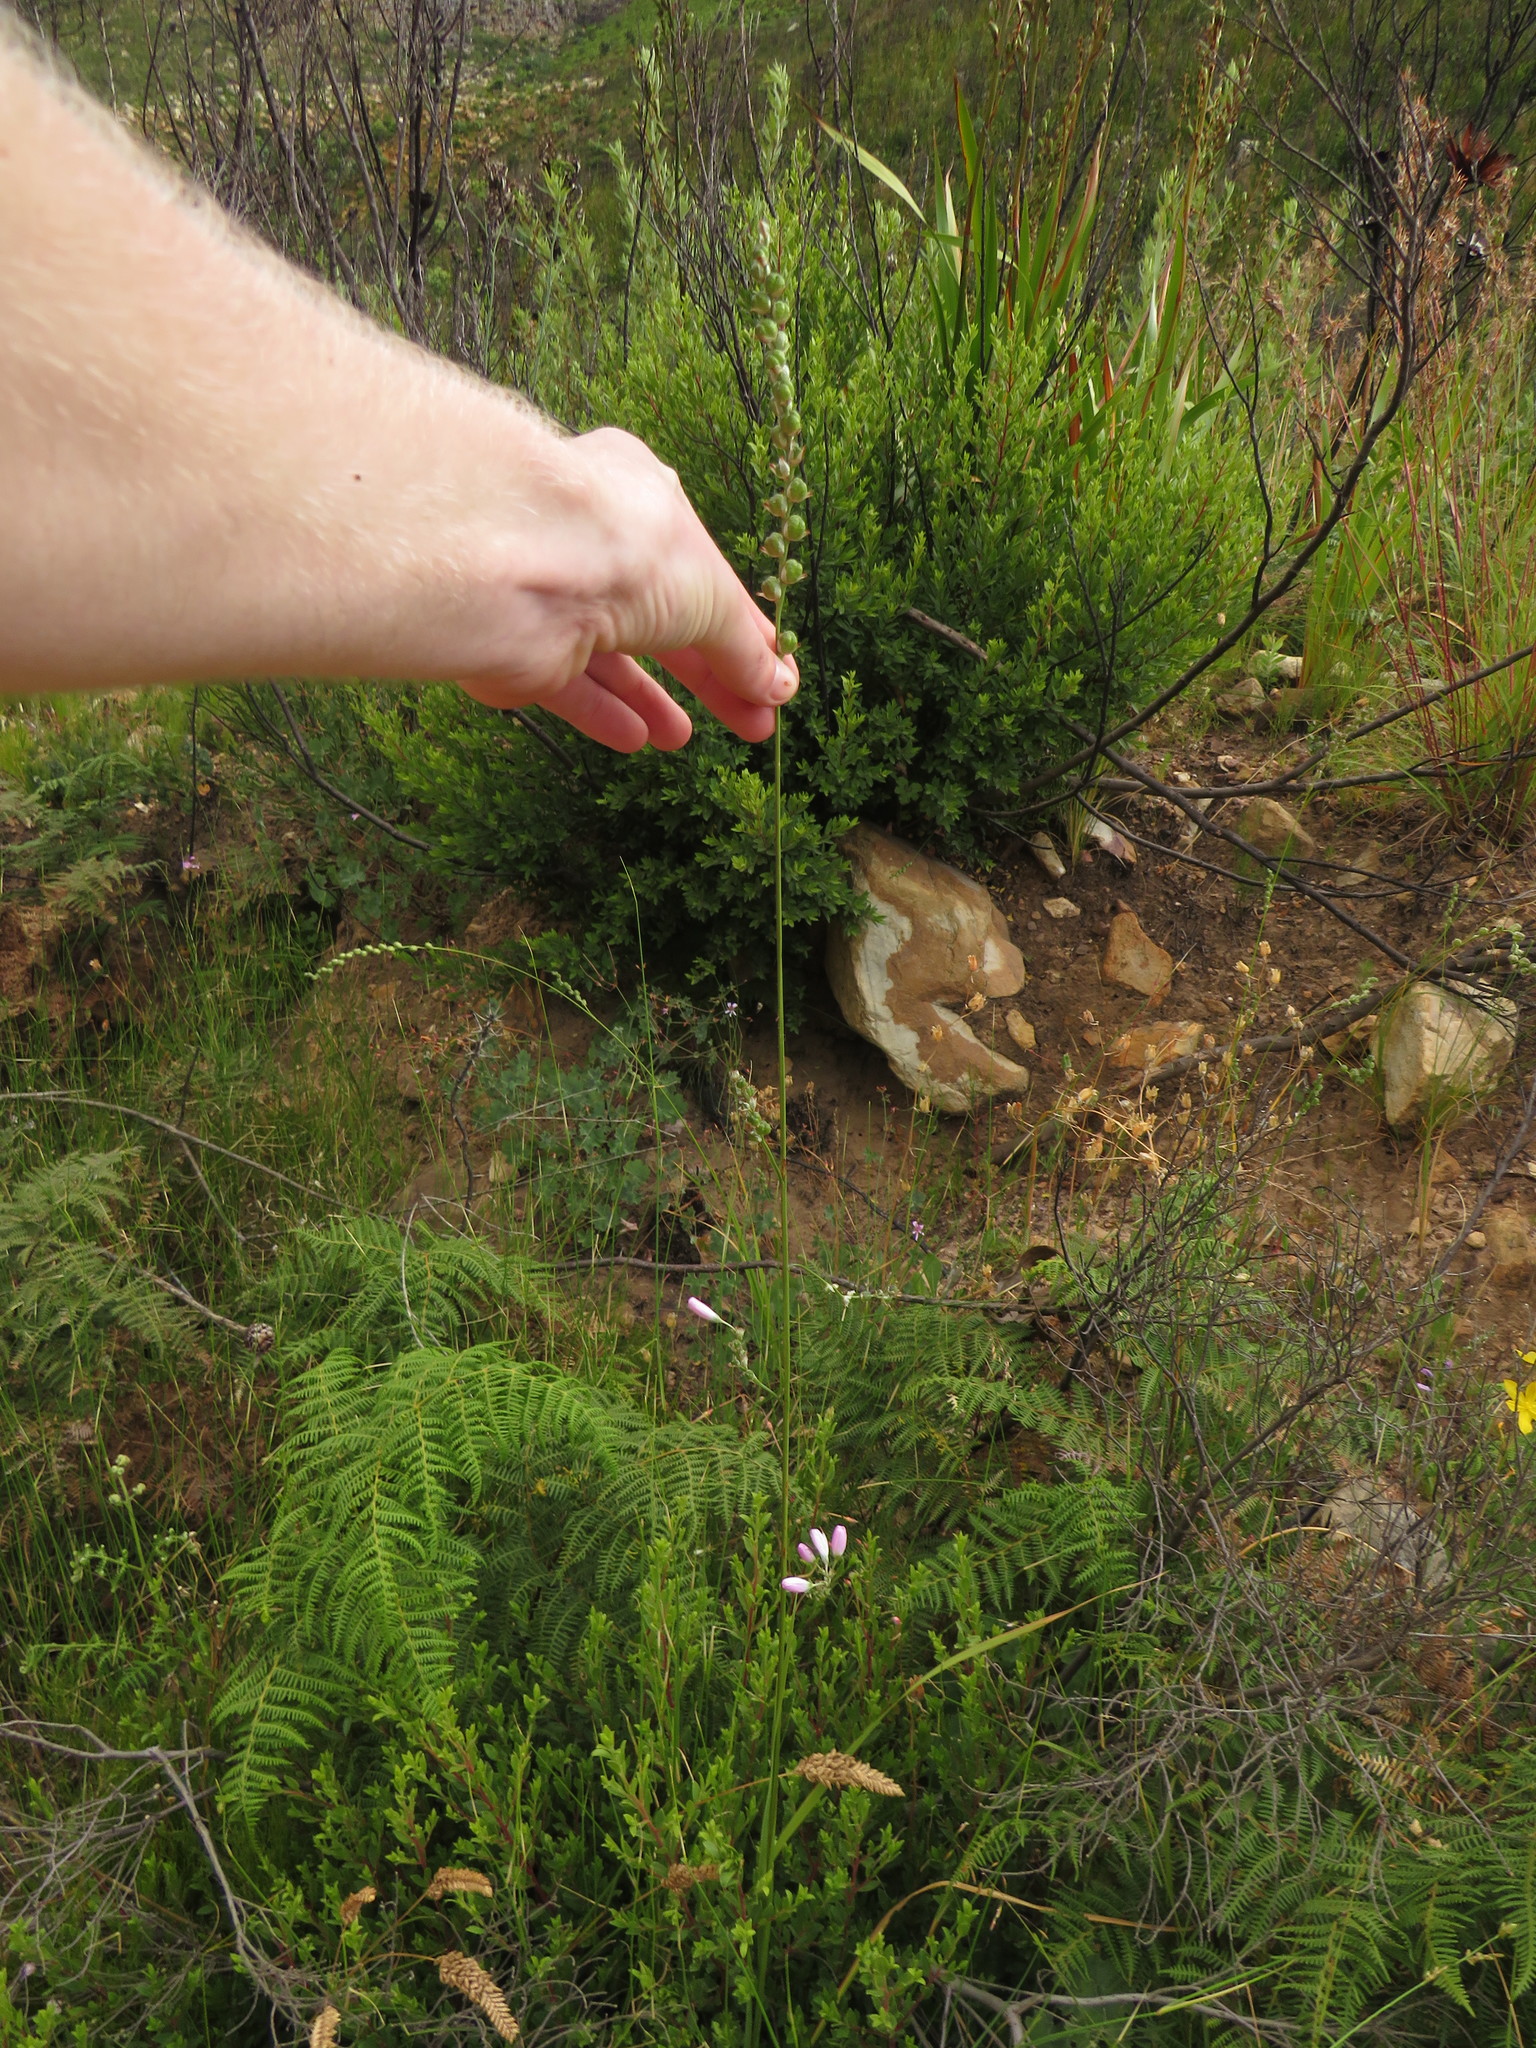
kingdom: Plantae
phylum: Tracheophyta
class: Liliopsida
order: Asparagales
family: Iridaceae
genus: Ixia
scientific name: Ixia polystachya
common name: White-and-yellow-flower cornlily
